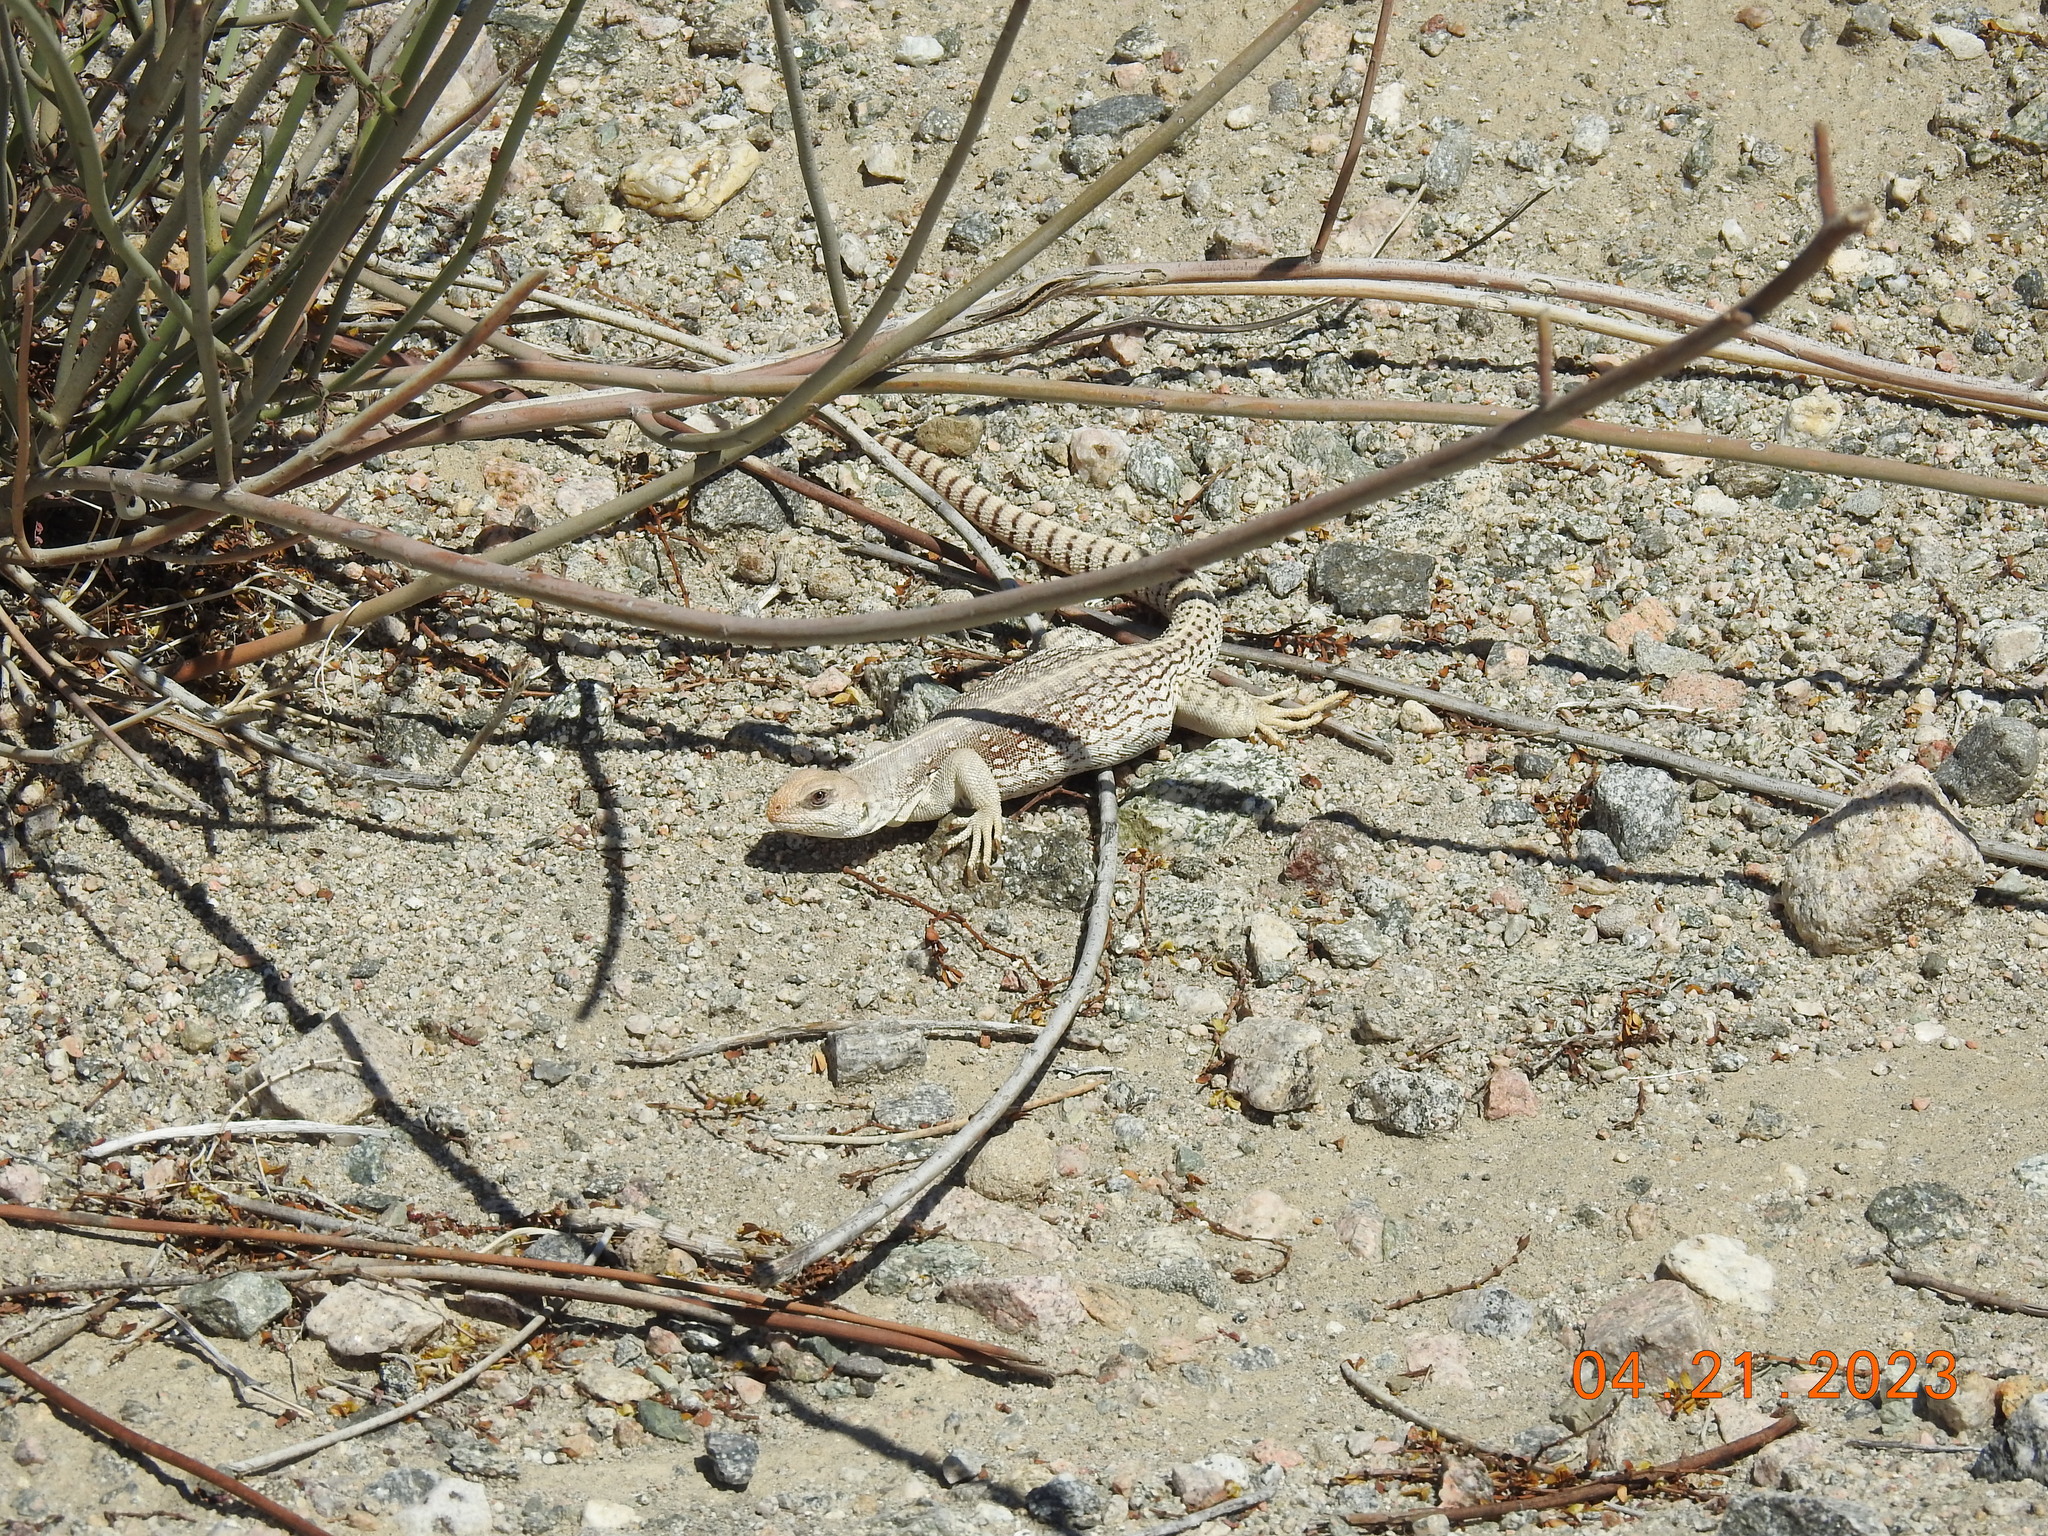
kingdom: Animalia
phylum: Chordata
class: Squamata
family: Iguanidae
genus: Dipsosaurus
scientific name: Dipsosaurus dorsalis
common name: Desert iguana
